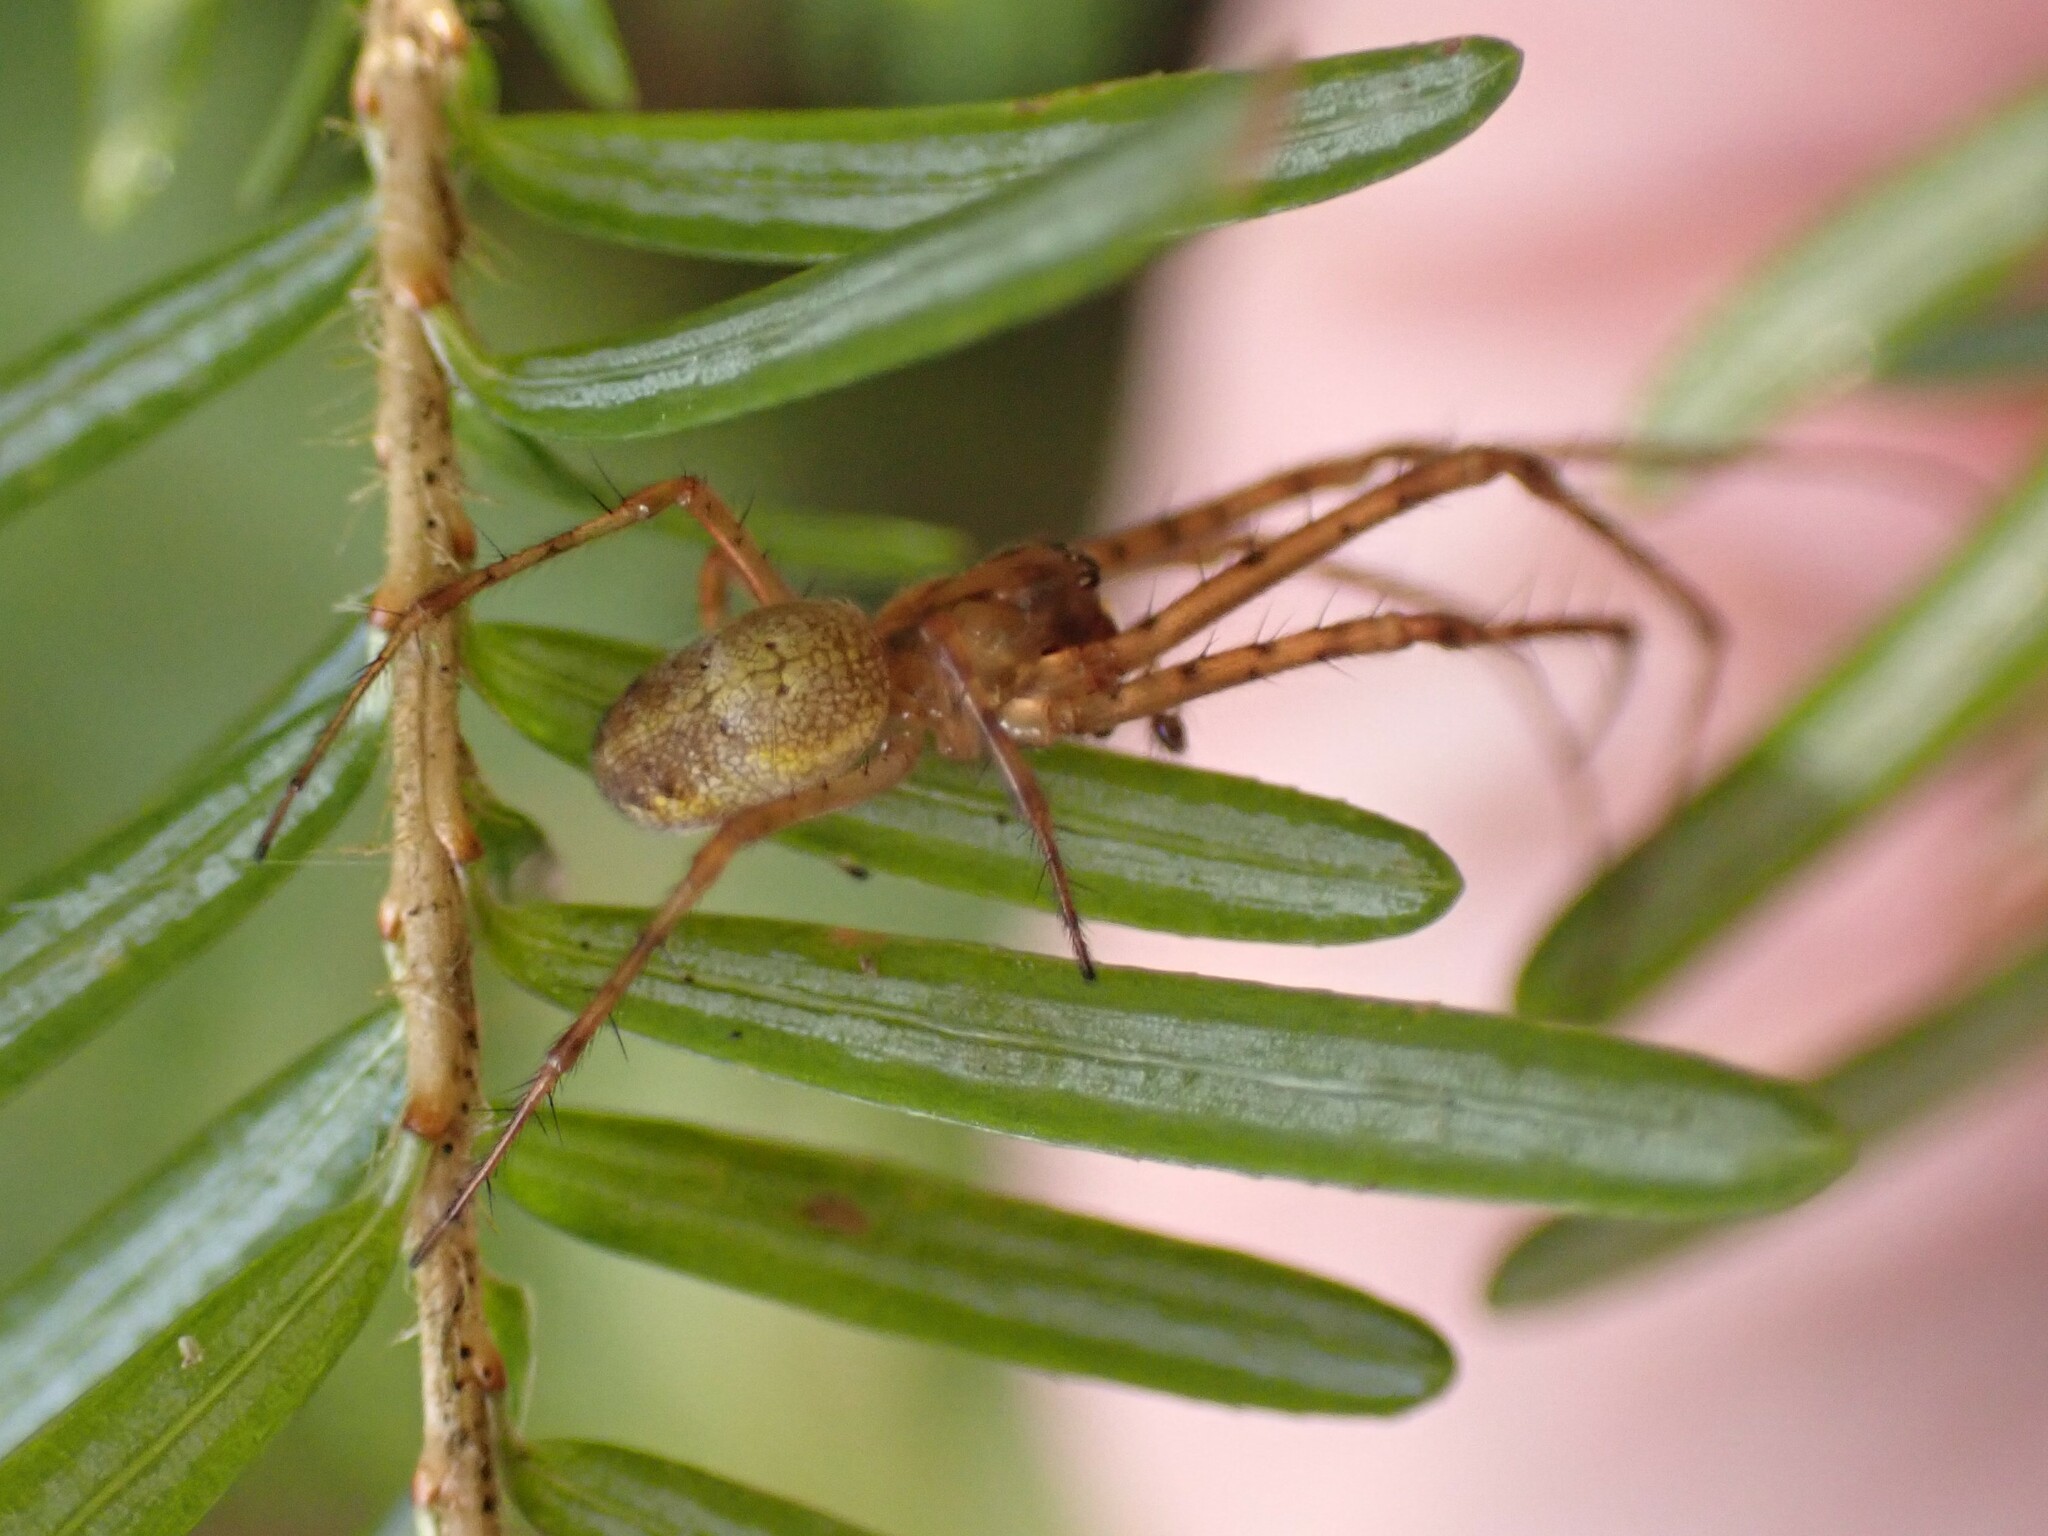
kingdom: Animalia
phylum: Arthropoda
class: Arachnida
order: Araneae
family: Tetragnathidae
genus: Metellina
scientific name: Metellina curtisi
